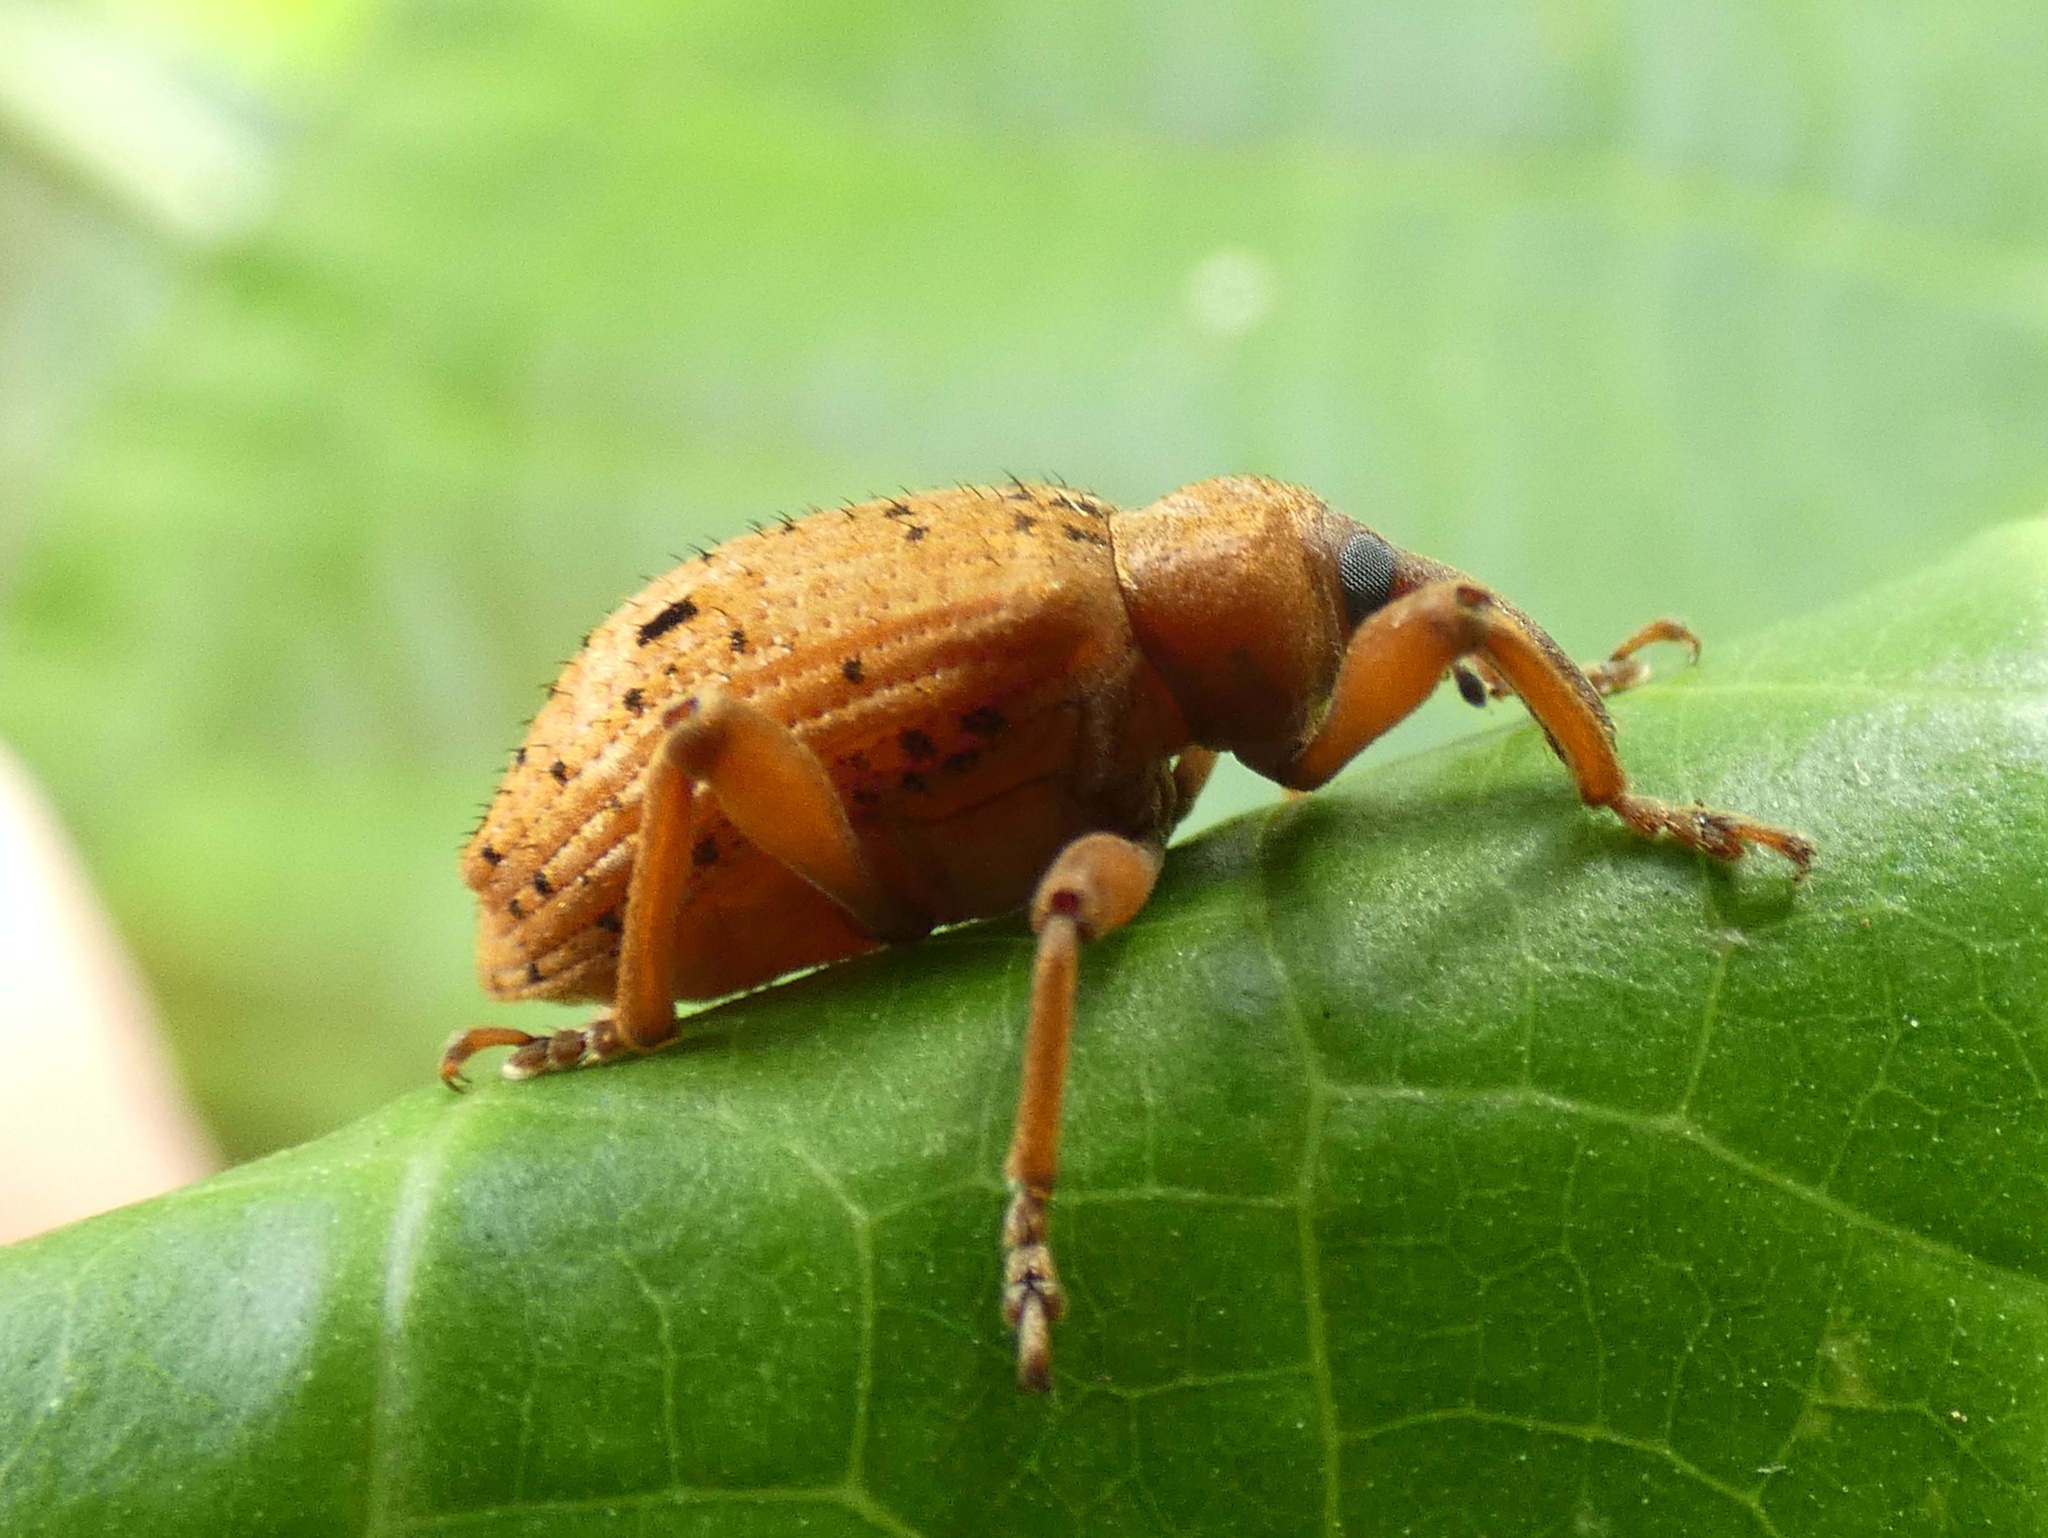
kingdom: Animalia
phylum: Arthropoda
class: Insecta
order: Coleoptera
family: Curculionidae
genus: Phelypera
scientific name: Phelypera
